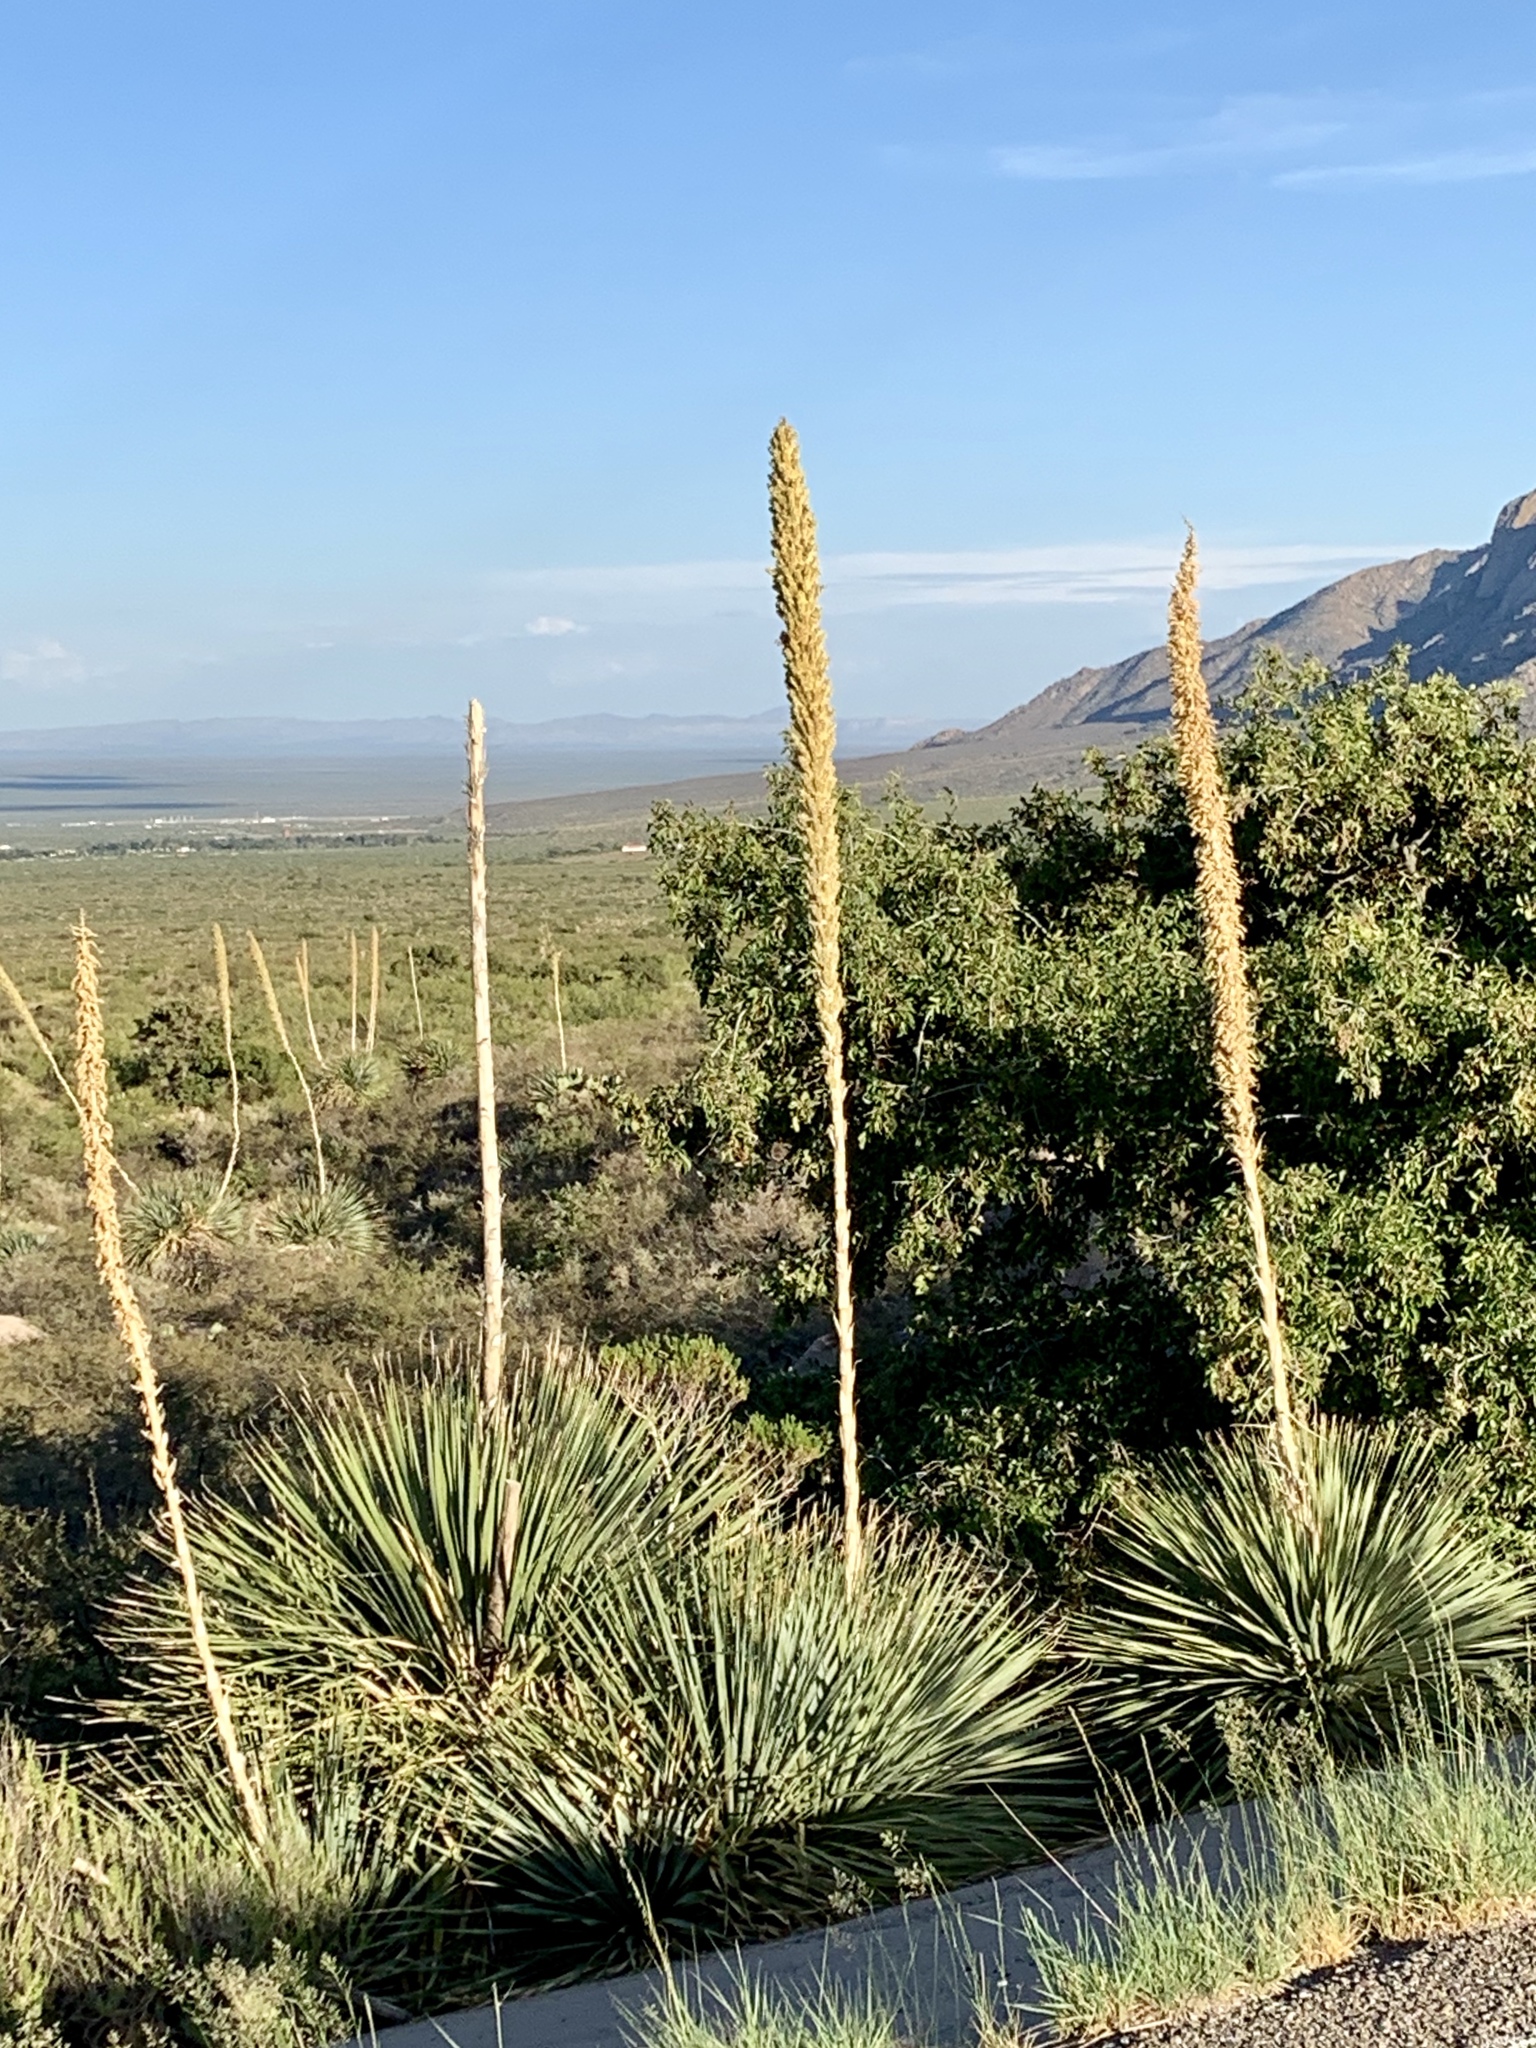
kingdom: Plantae
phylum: Tracheophyta
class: Liliopsida
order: Asparagales
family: Asparagaceae
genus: Dasylirion
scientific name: Dasylirion wheeleri
